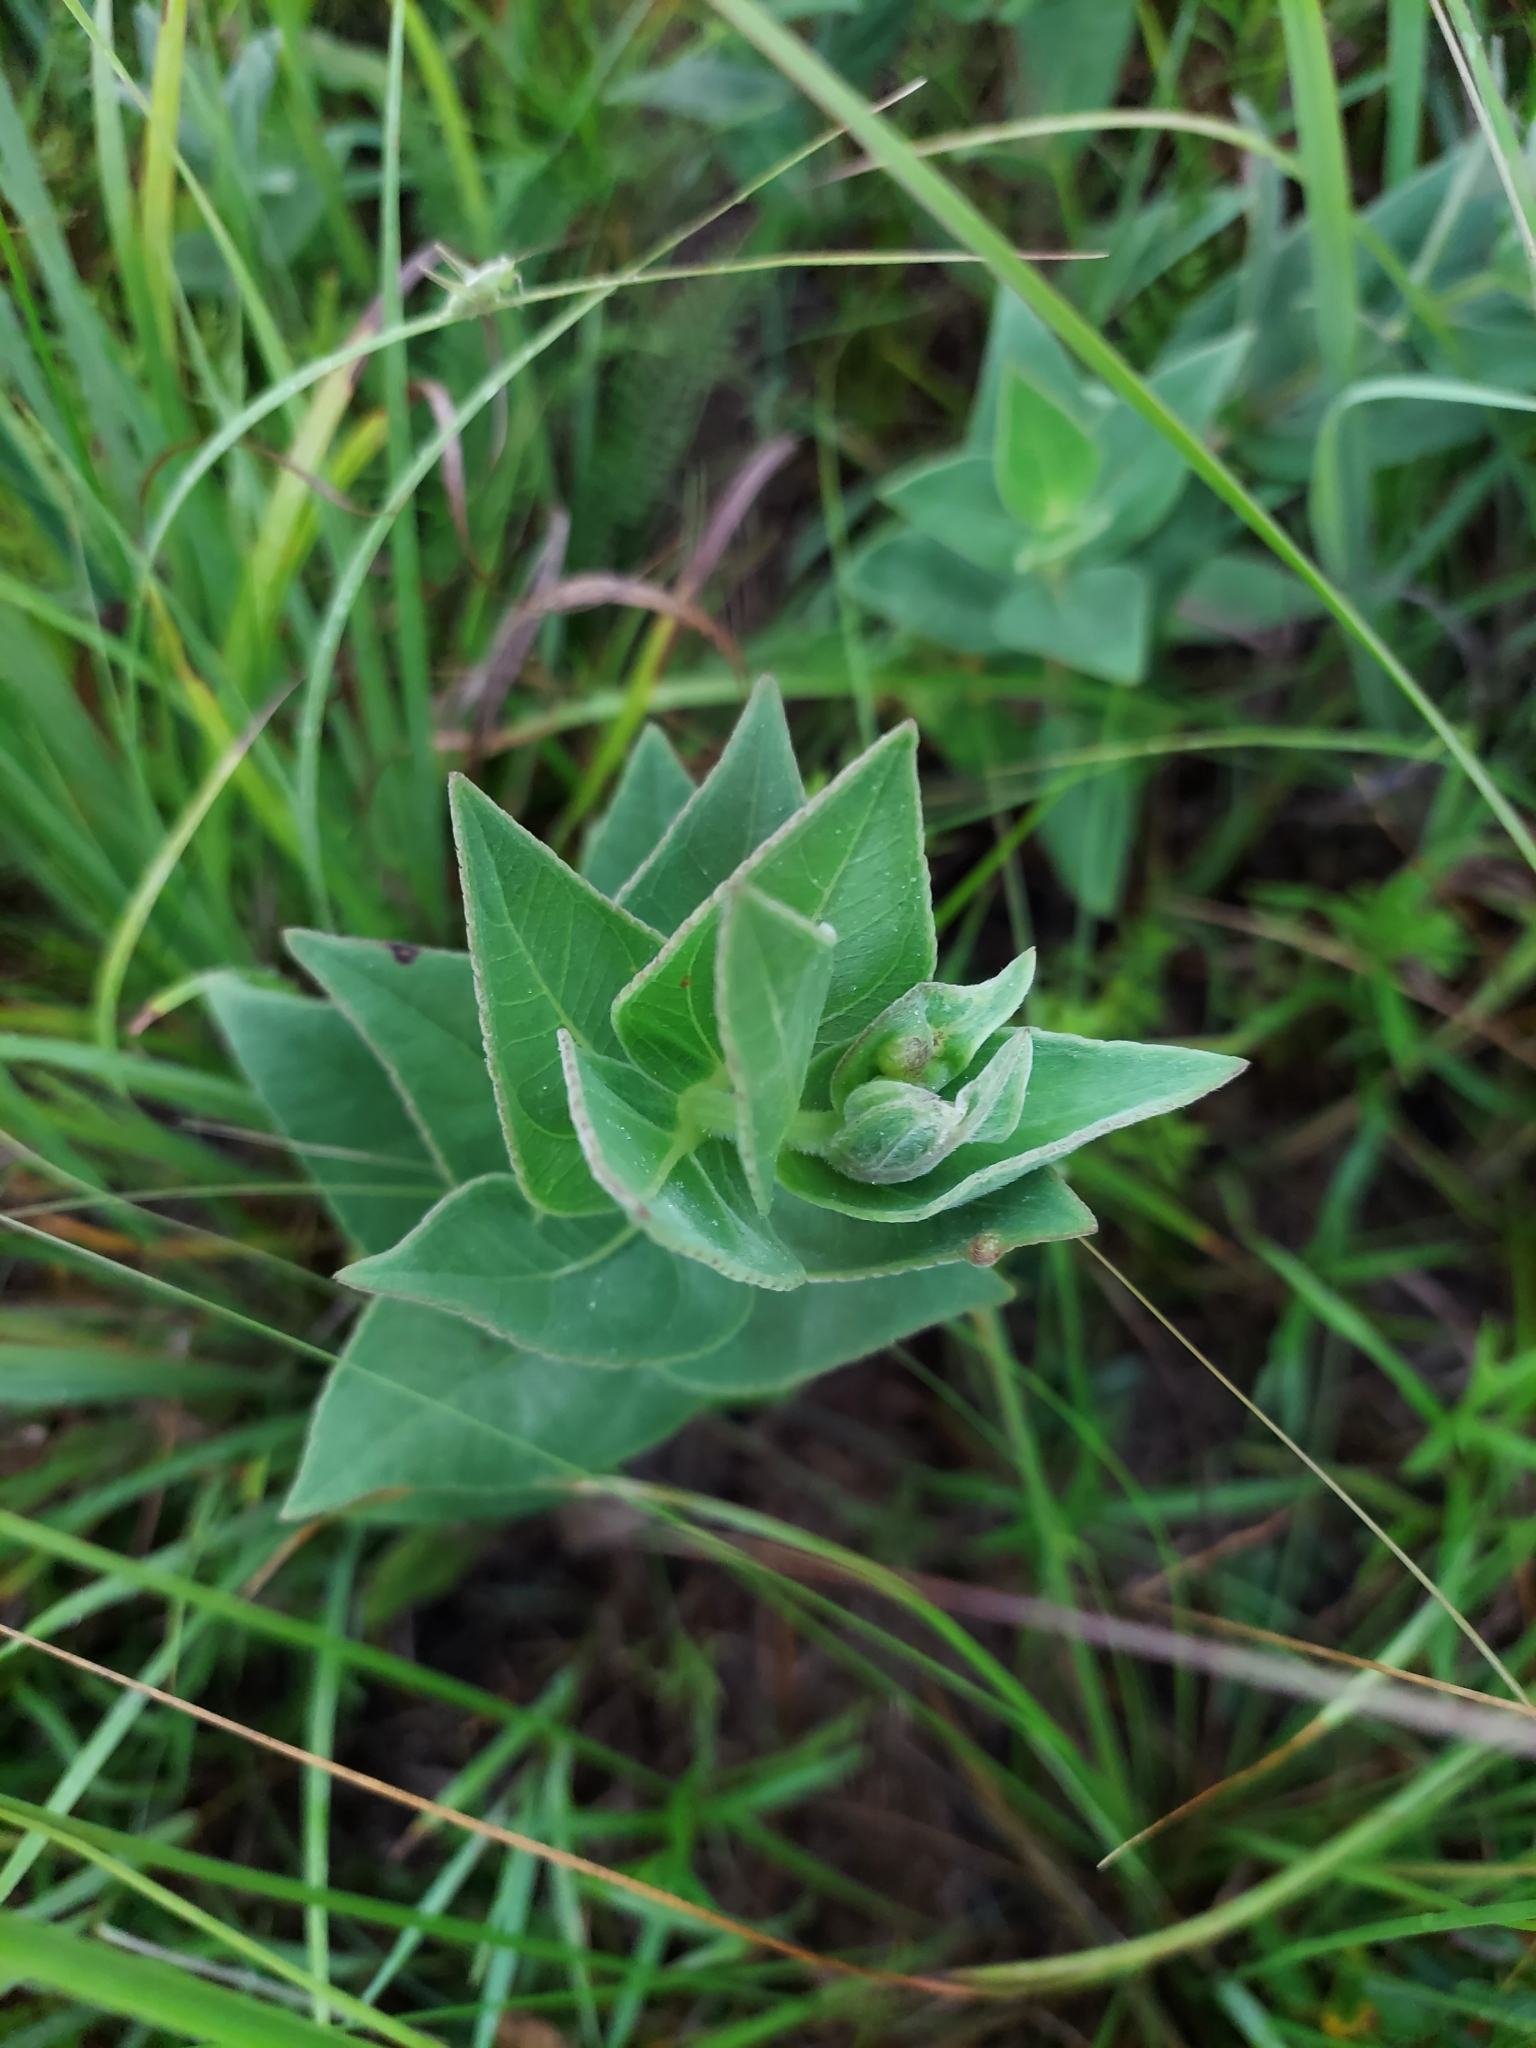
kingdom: Plantae
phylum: Tracheophyta
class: Magnoliopsida
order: Asterales
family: Asteraceae
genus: Helianthus
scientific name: Helianthus mollis
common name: Ashy sunflower
